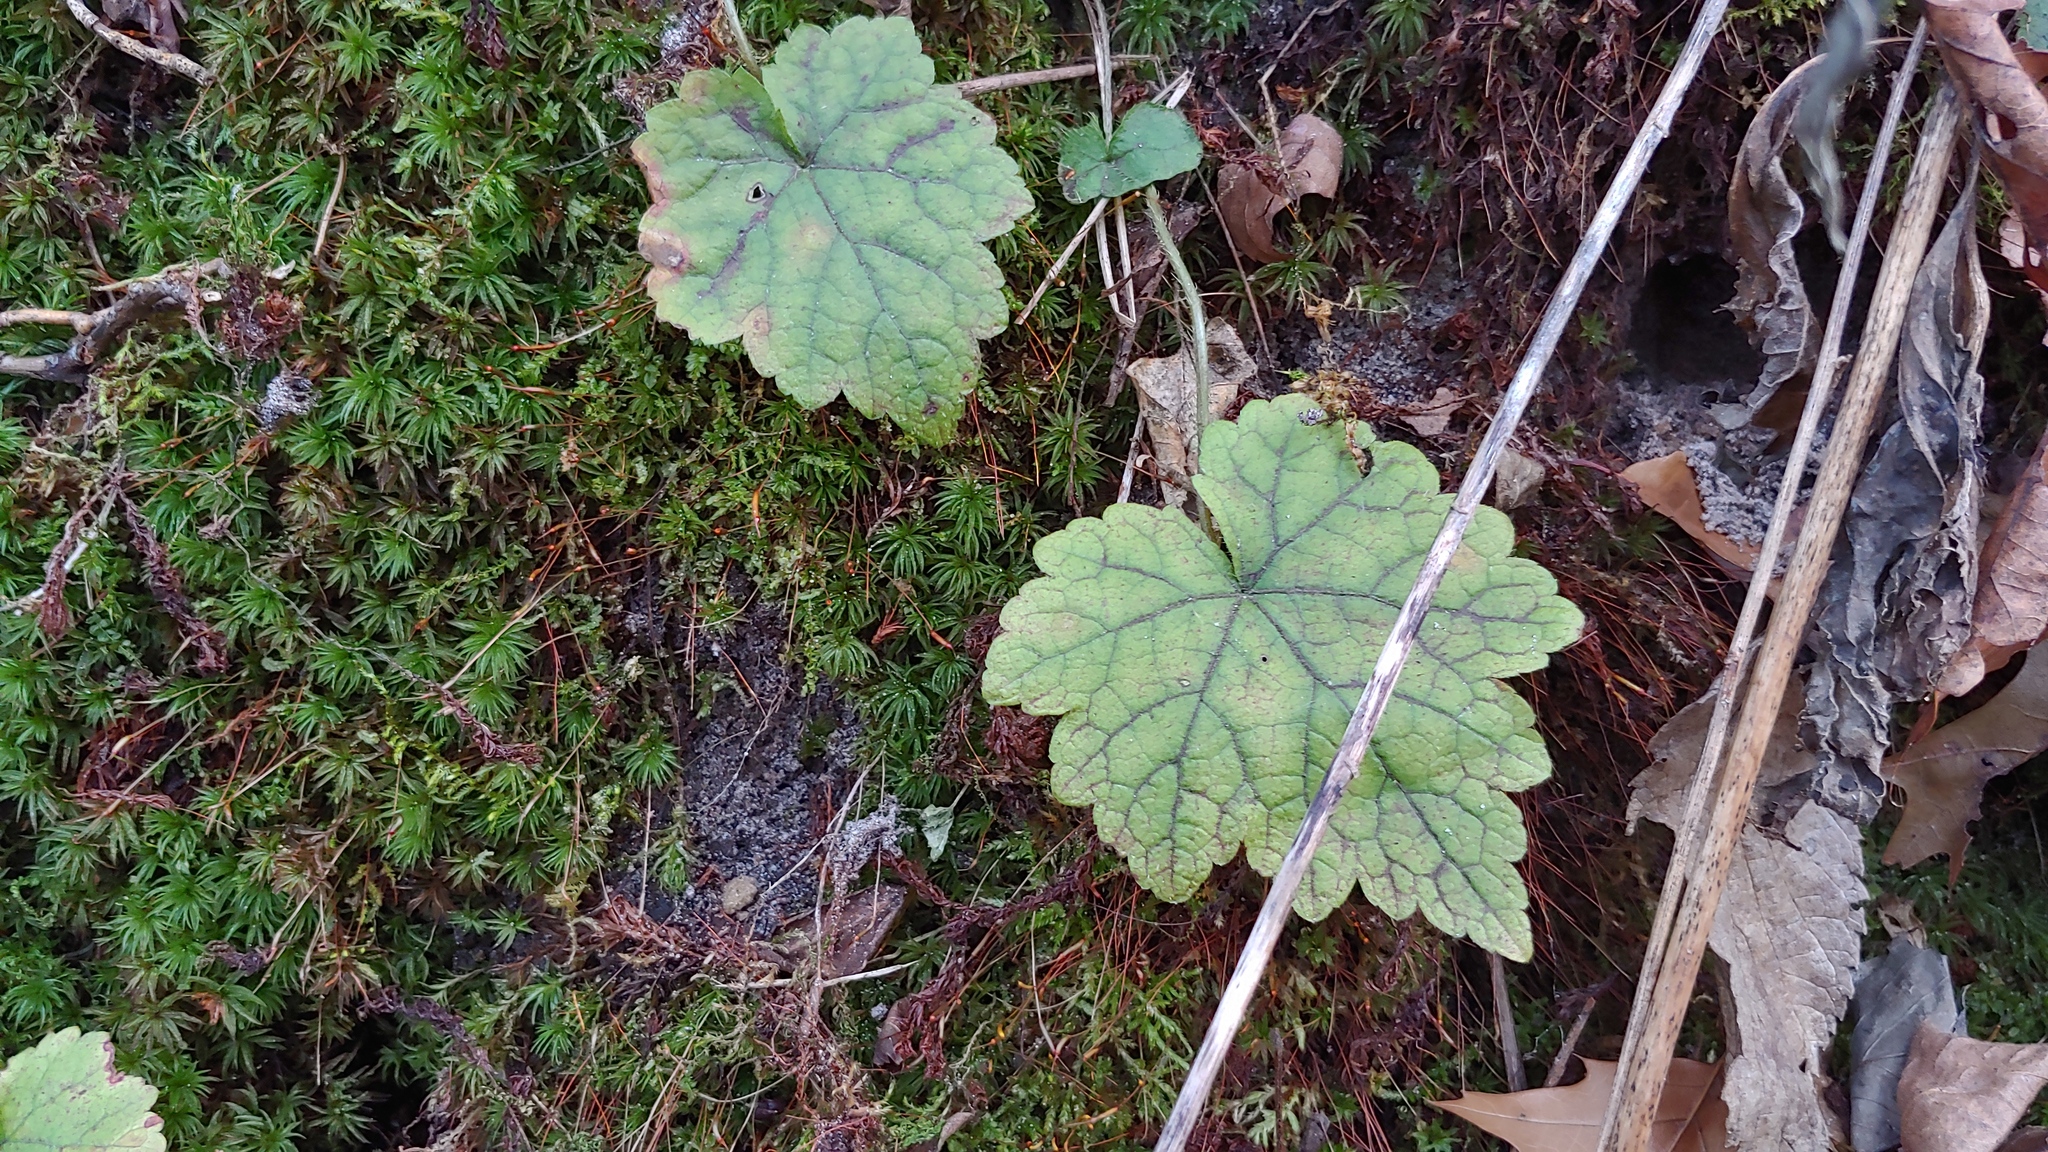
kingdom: Plantae
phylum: Tracheophyta
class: Magnoliopsida
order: Saxifragales
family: Saxifragaceae
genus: Mitella
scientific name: Mitella diphylla
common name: Coolwort
